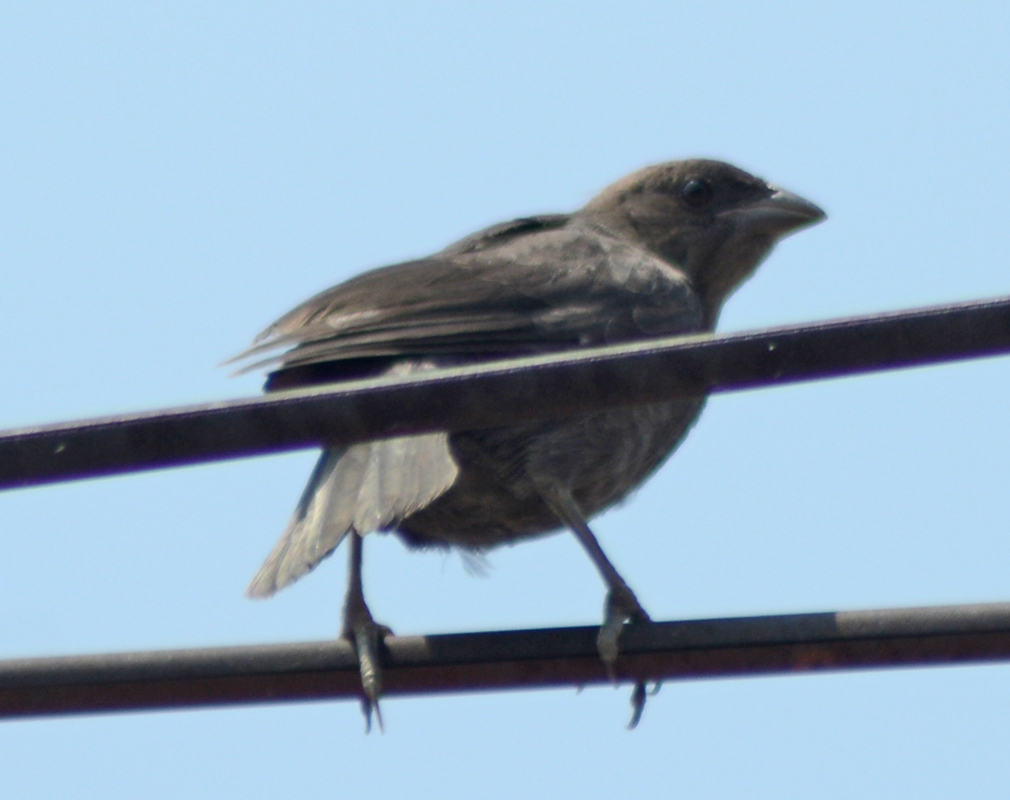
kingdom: Animalia
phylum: Chordata
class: Aves
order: Passeriformes
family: Icteridae
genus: Molothrus
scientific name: Molothrus ater
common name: Brown-headed cowbird
